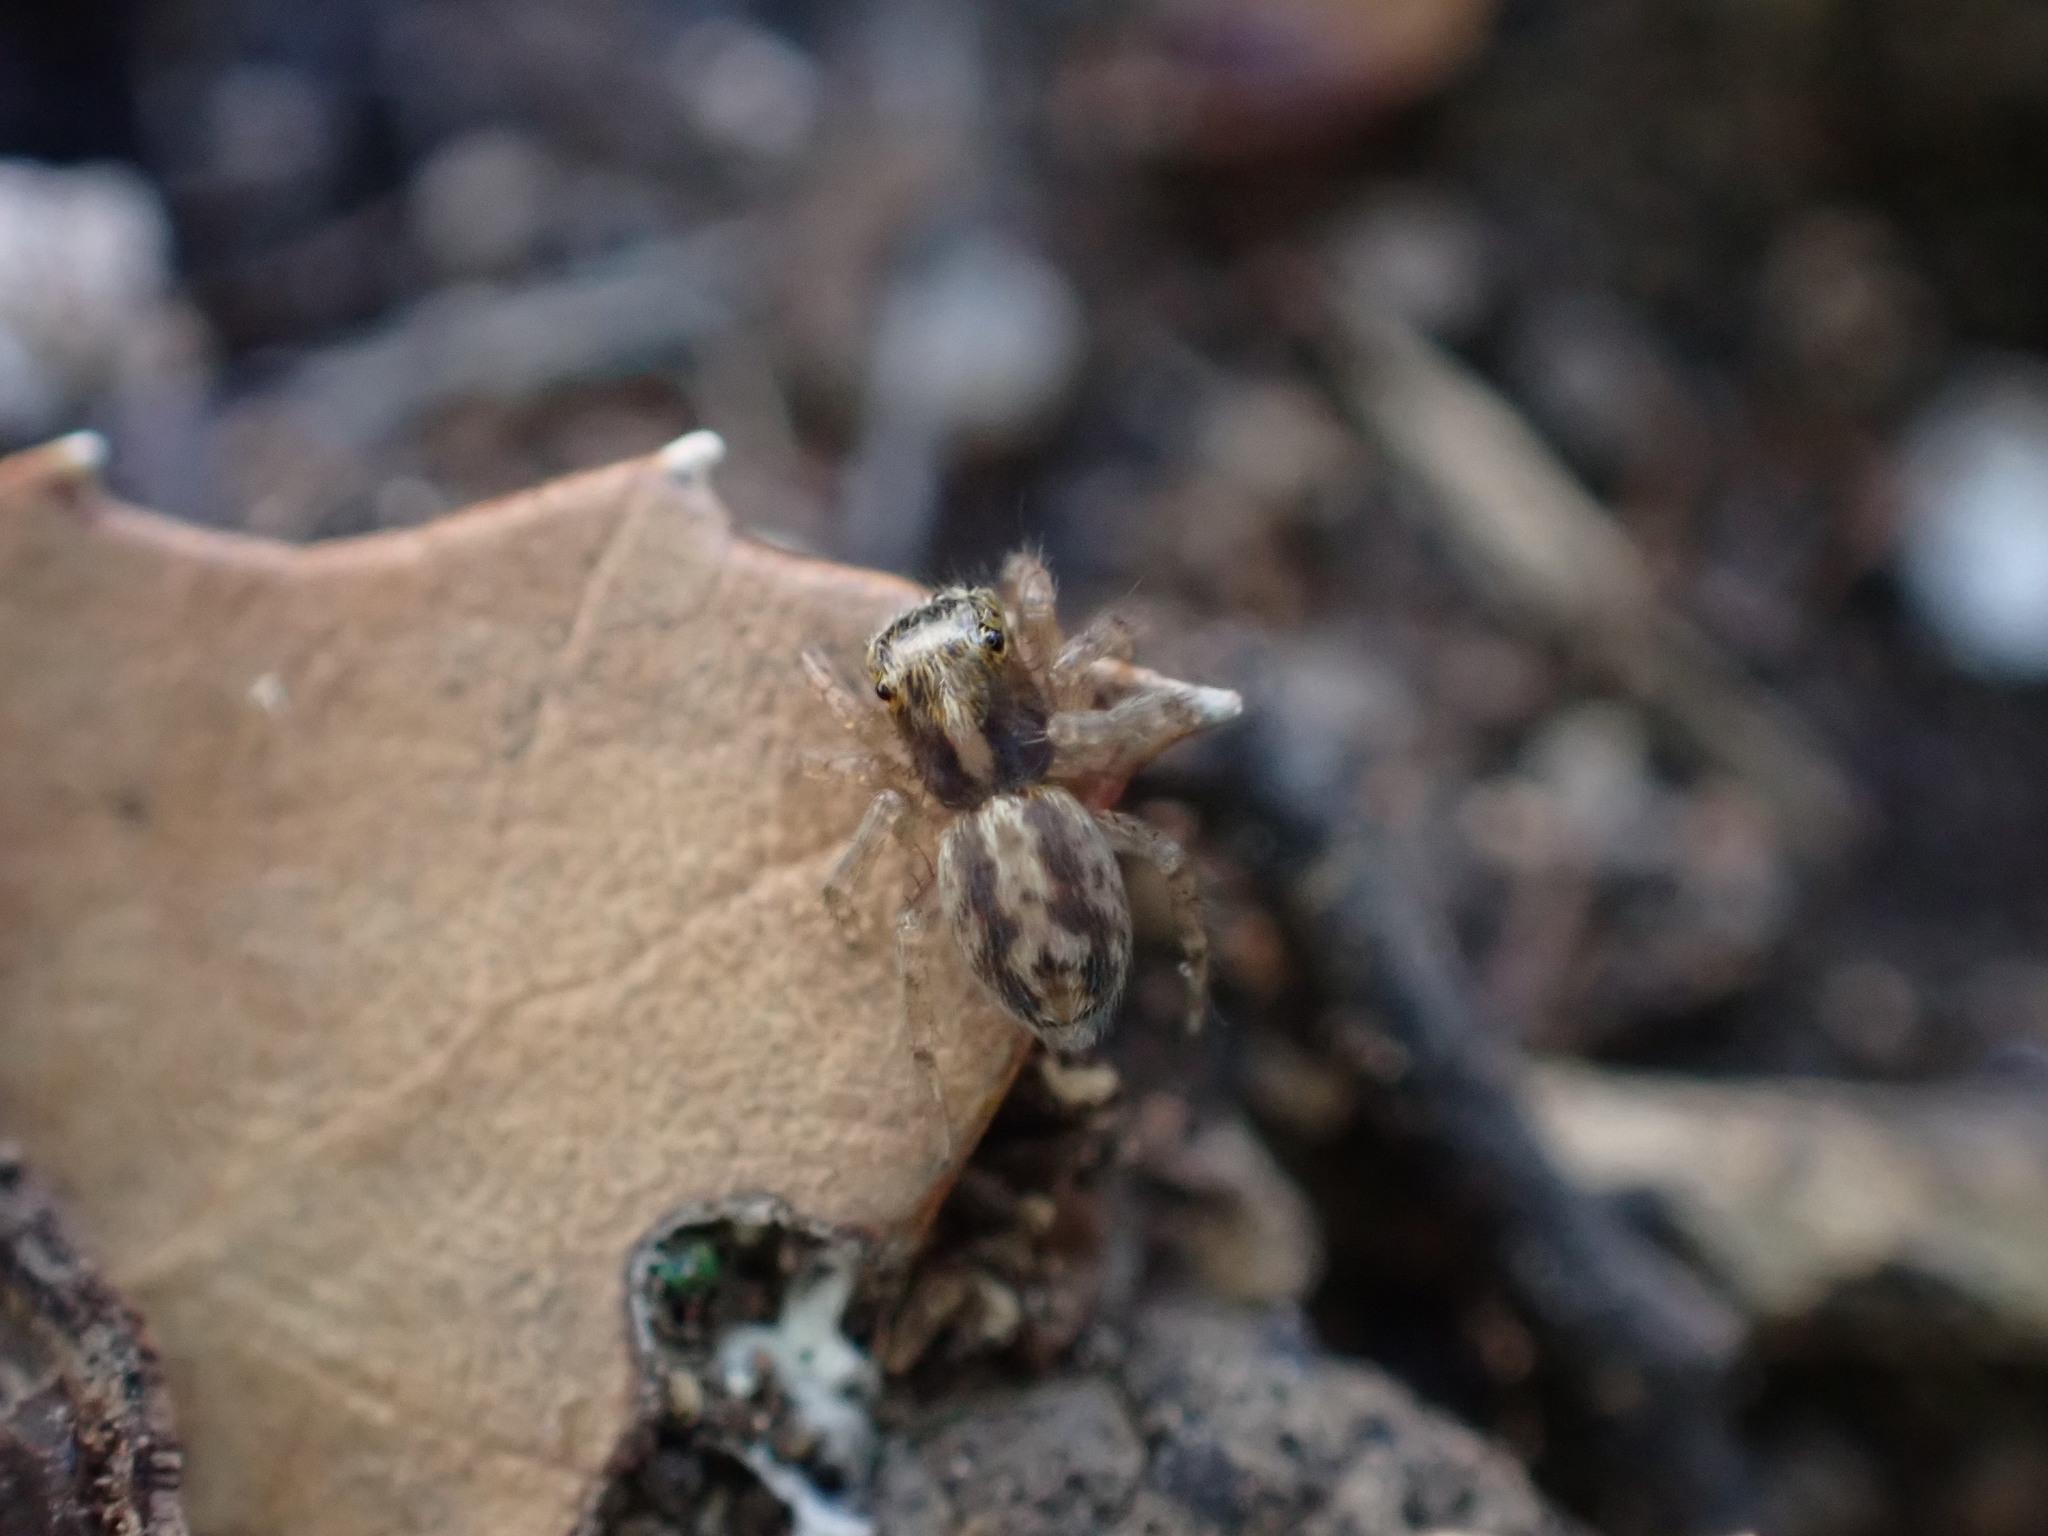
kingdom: Animalia
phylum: Arthropoda
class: Arachnida
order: Araneae
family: Salticidae
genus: Saitis
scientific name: Saitis barbipes
